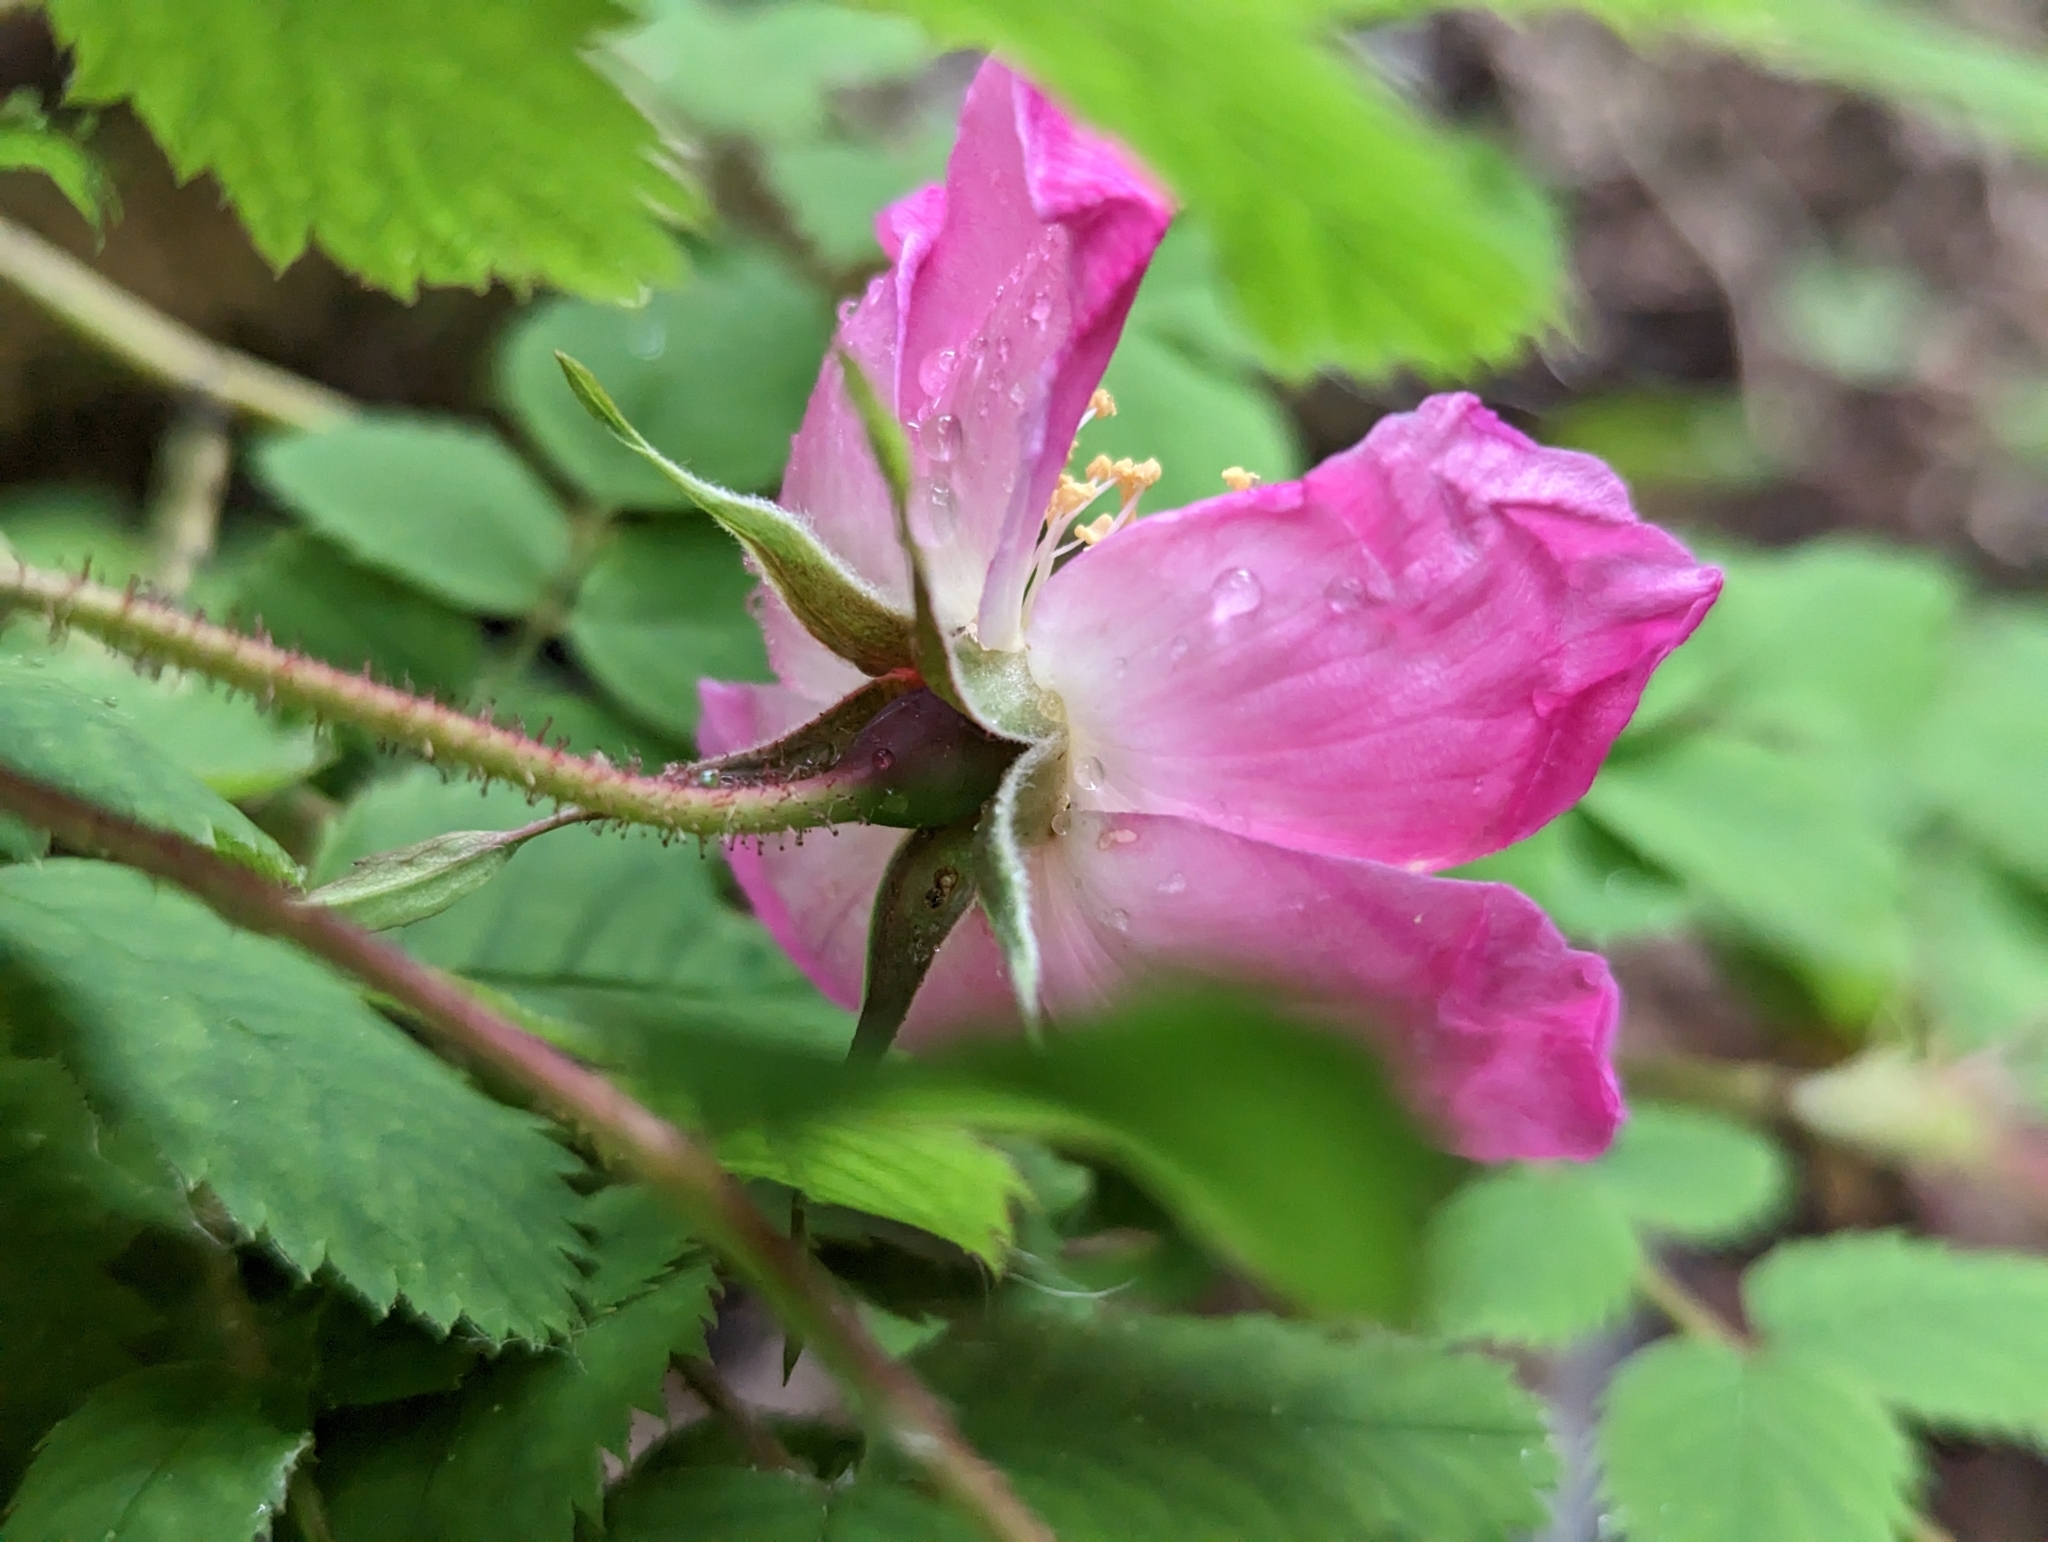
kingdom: Plantae
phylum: Tracheophyta
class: Magnoliopsida
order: Rosales
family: Rosaceae
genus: Rosa
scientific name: Rosa pendulina
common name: Alpine rose
